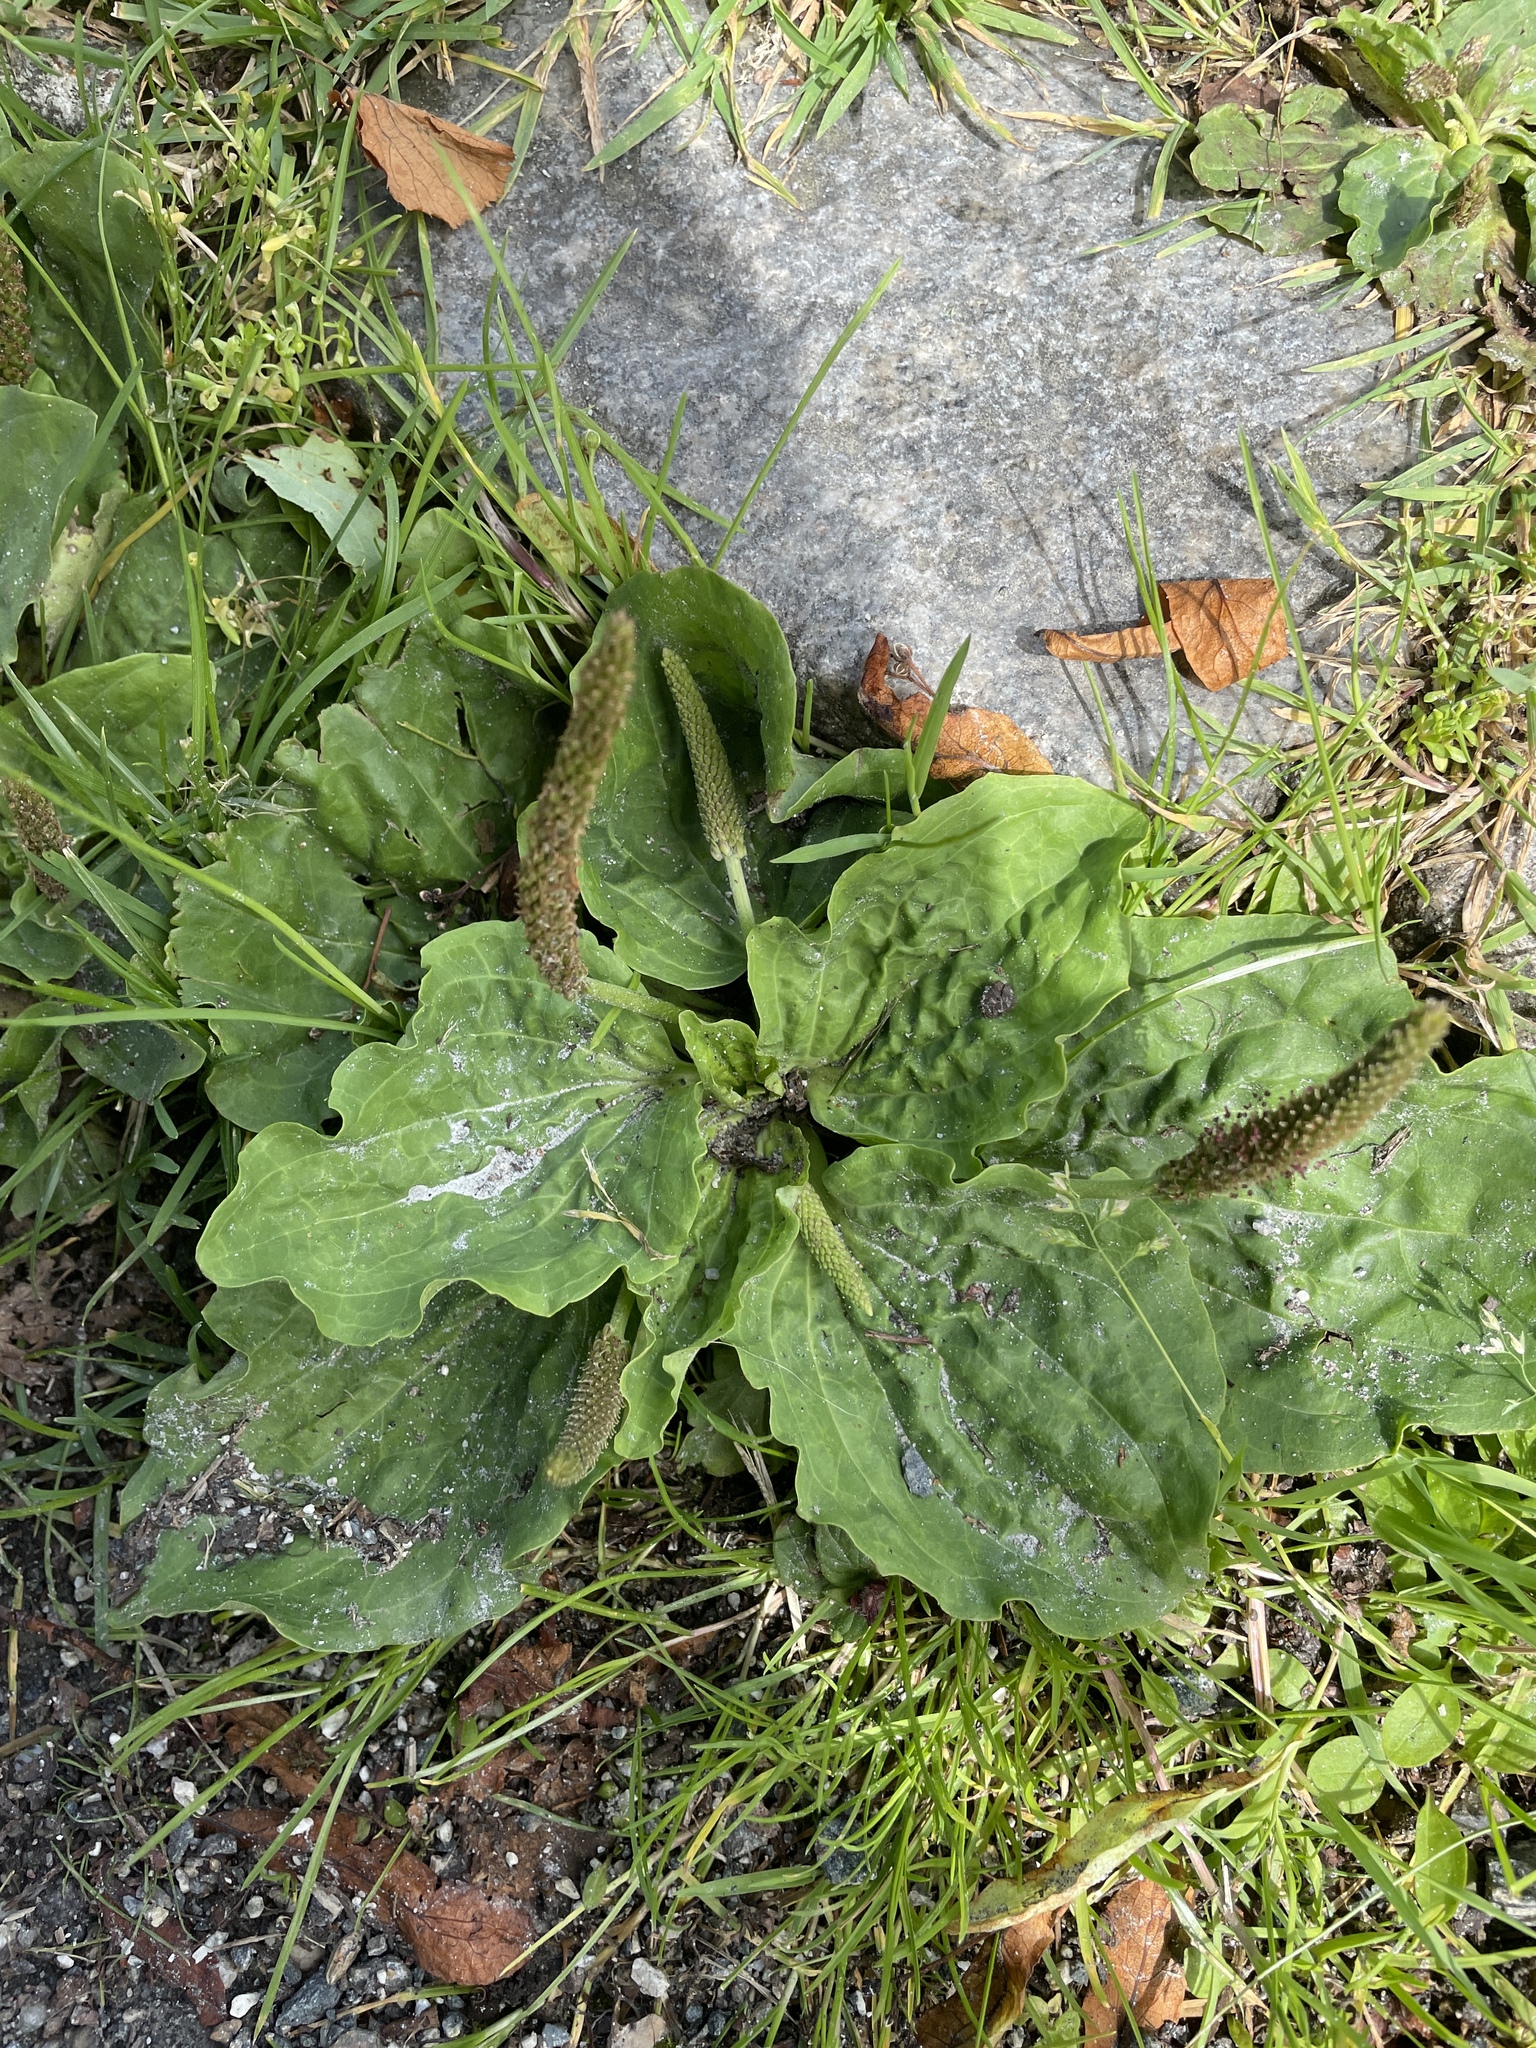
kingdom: Plantae
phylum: Tracheophyta
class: Magnoliopsida
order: Lamiales
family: Plantaginaceae
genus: Plantago
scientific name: Plantago major
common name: Common plantain
